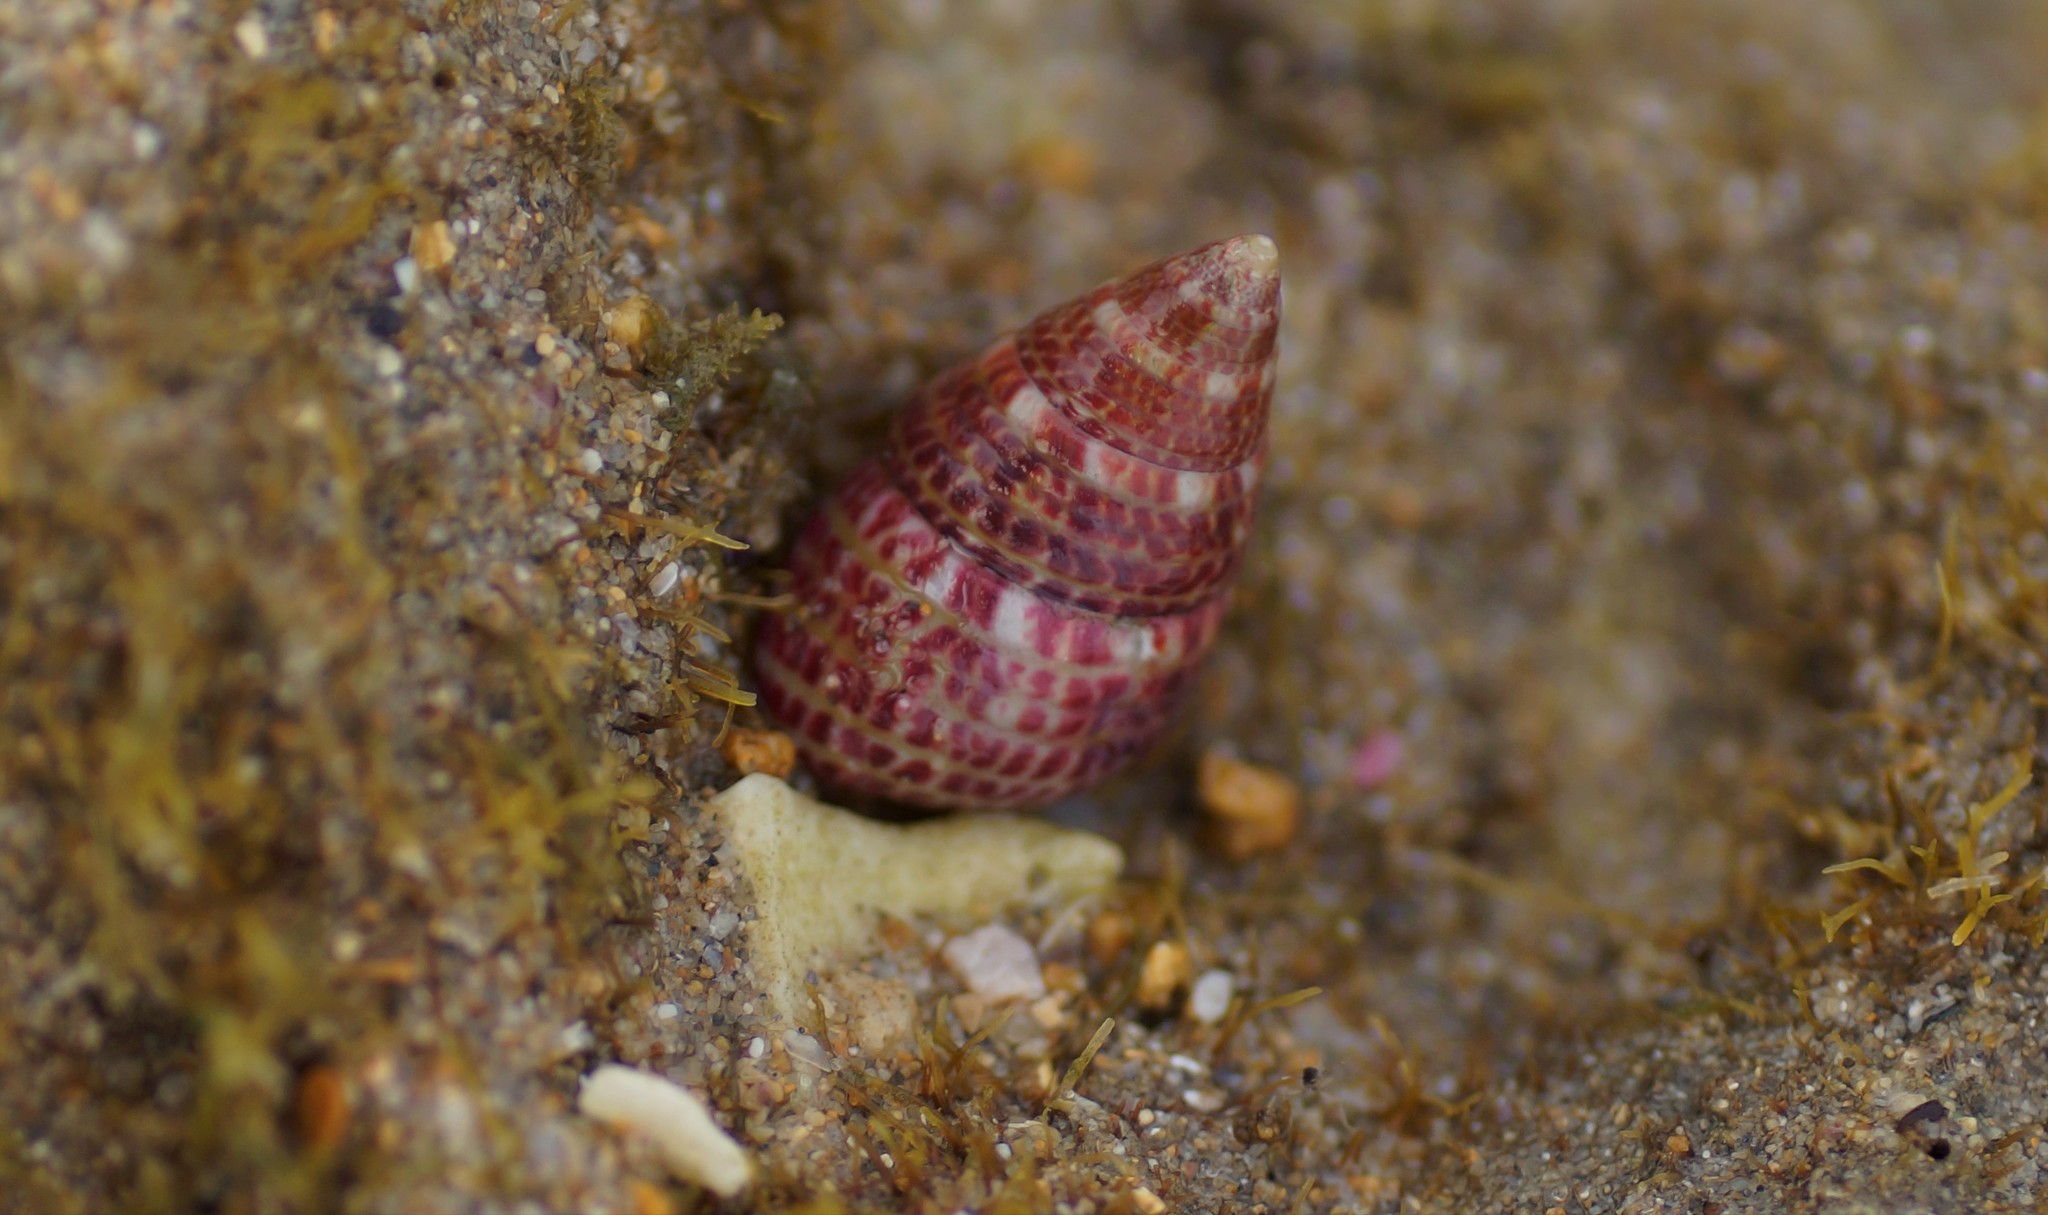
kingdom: Animalia
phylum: Mollusca
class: Gastropoda
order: Trochida
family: Trochidae
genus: Prothalotia
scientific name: Prothalotia pulcherrima
